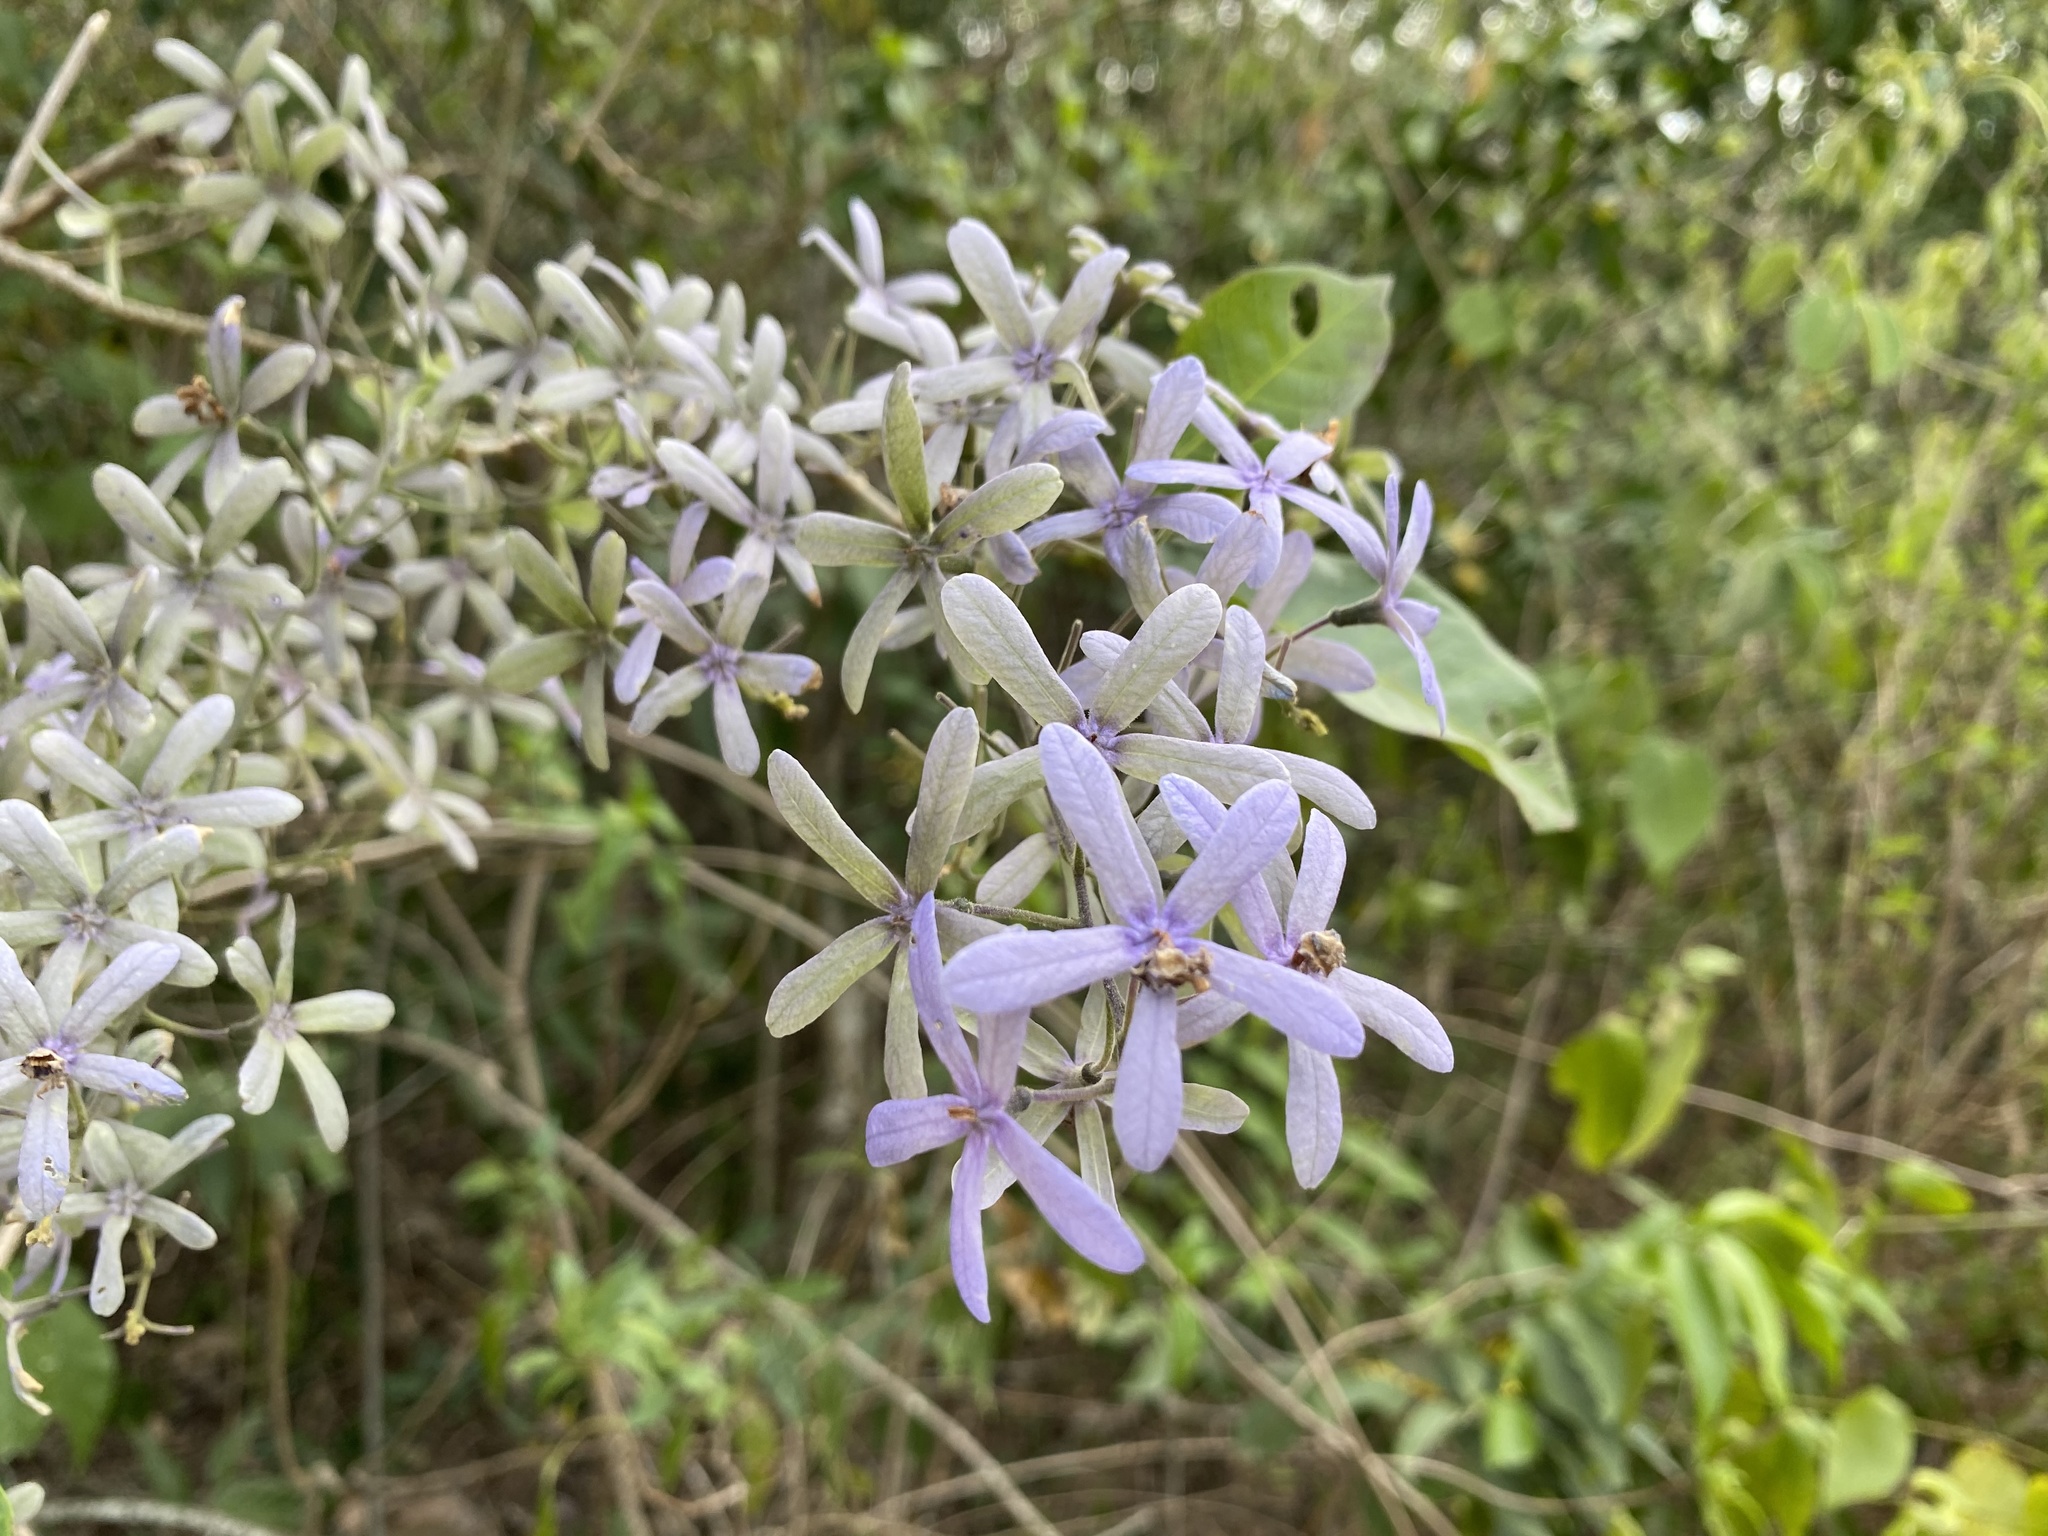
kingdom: Plantae
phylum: Tracheophyta
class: Magnoliopsida
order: Lamiales
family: Verbenaceae
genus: Petrea
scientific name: Petrea volubilis
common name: Queen's-wreath
